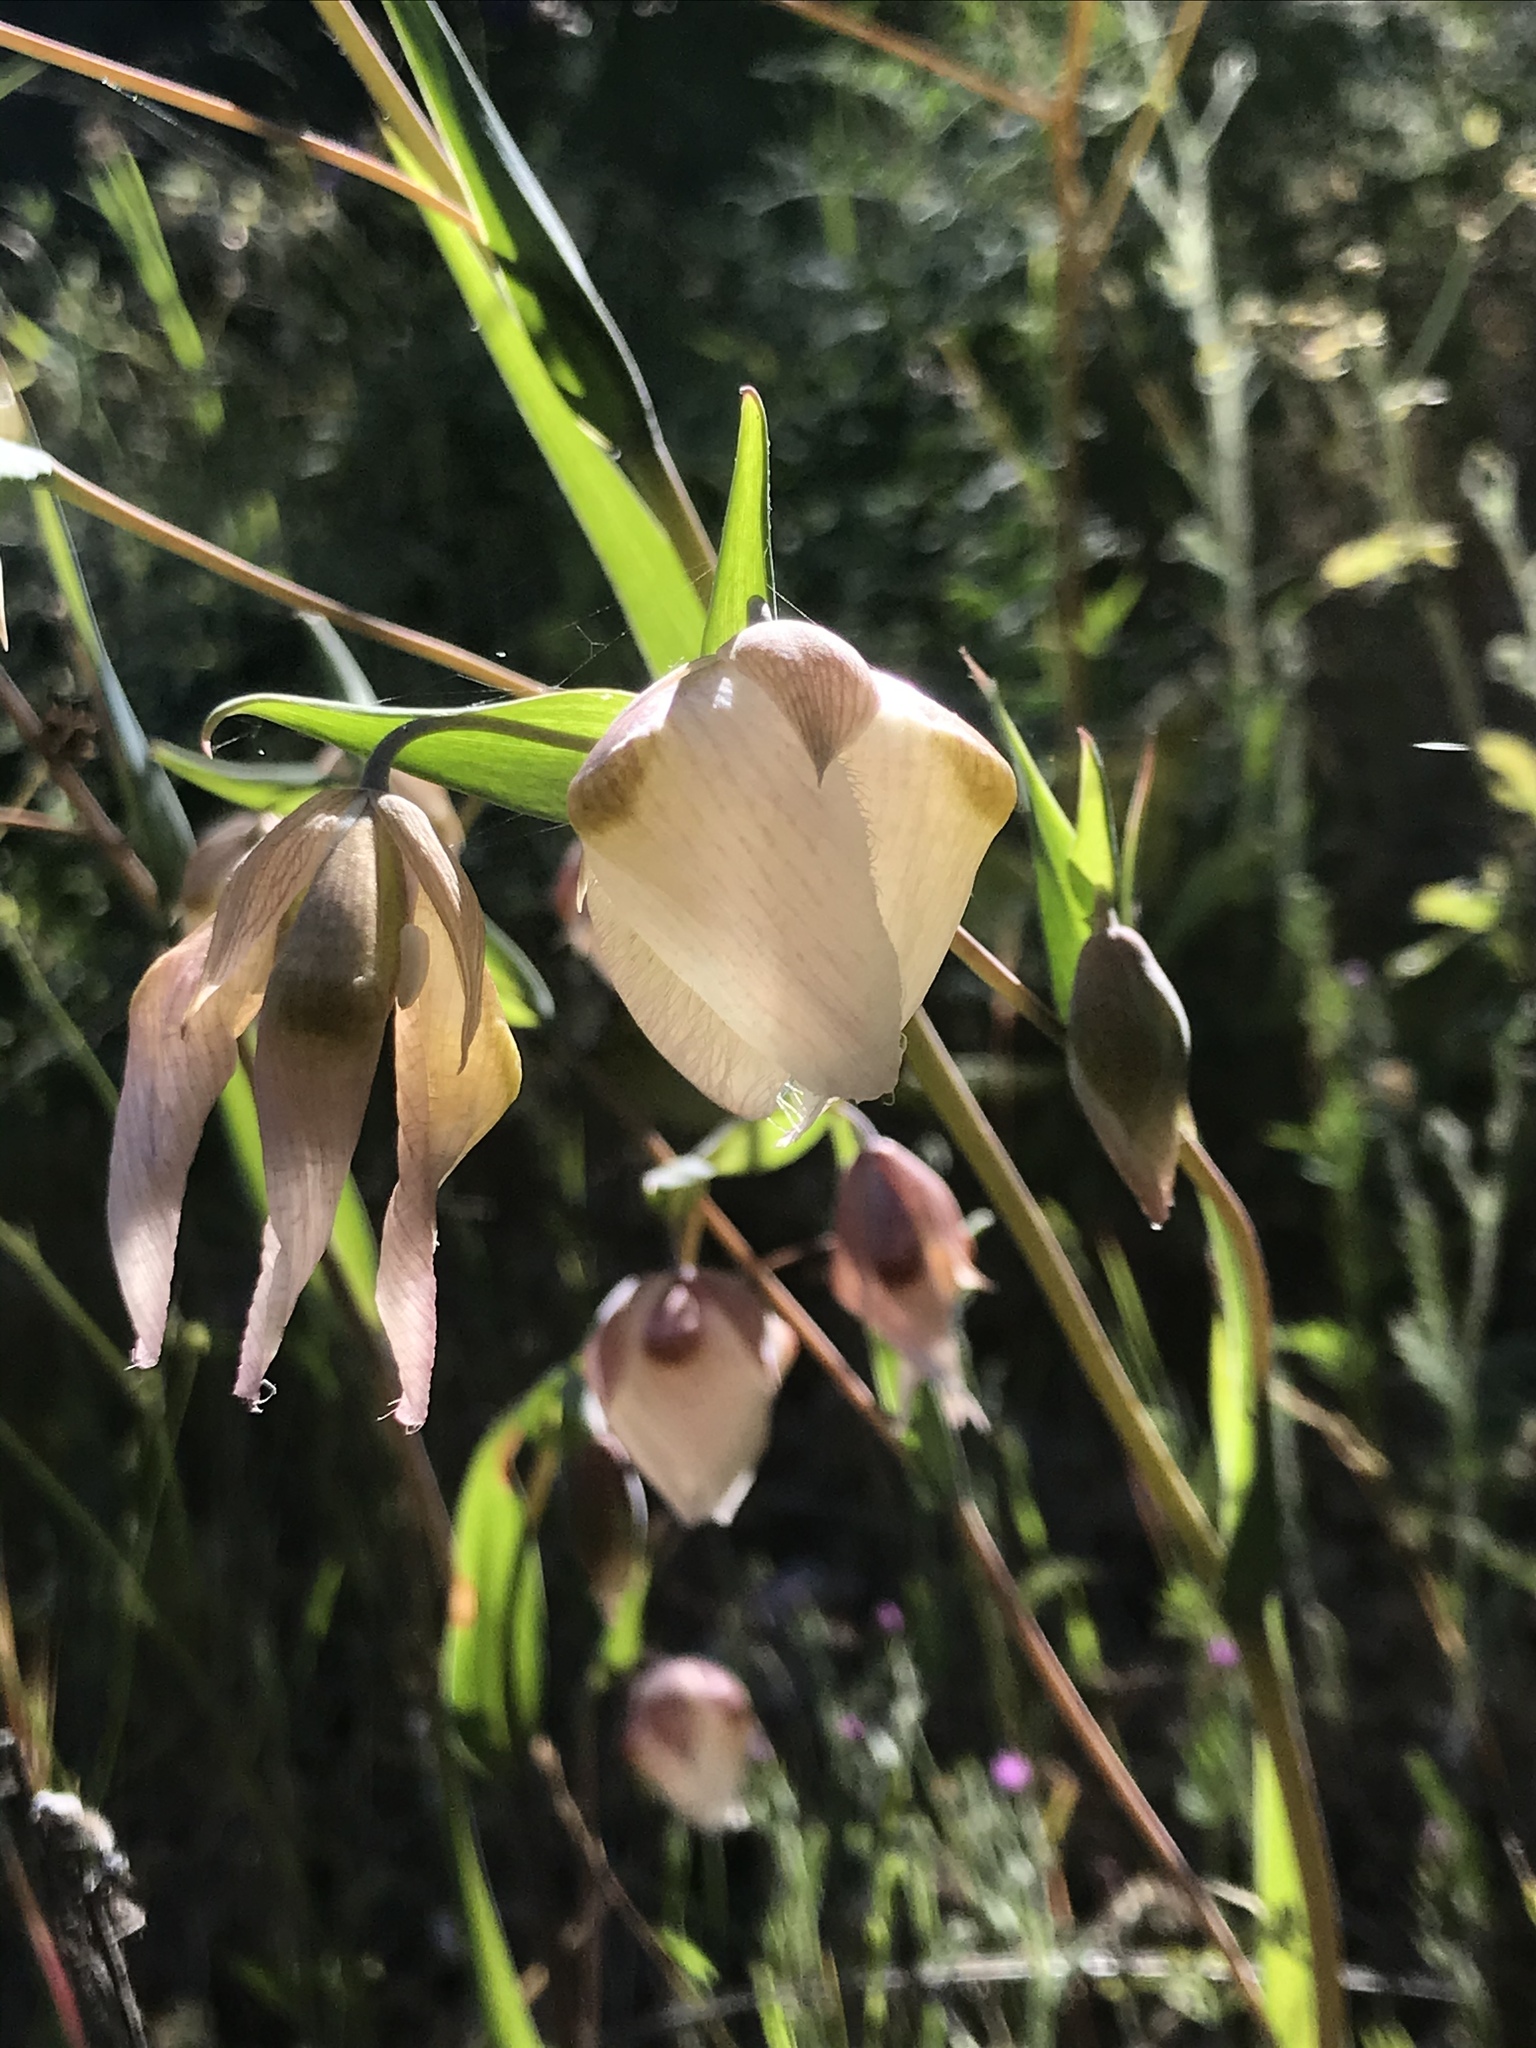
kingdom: Plantae
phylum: Tracheophyta
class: Liliopsida
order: Liliales
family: Liliaceae
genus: Calochortus
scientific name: Calochortus albus
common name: Fairy-lantern
